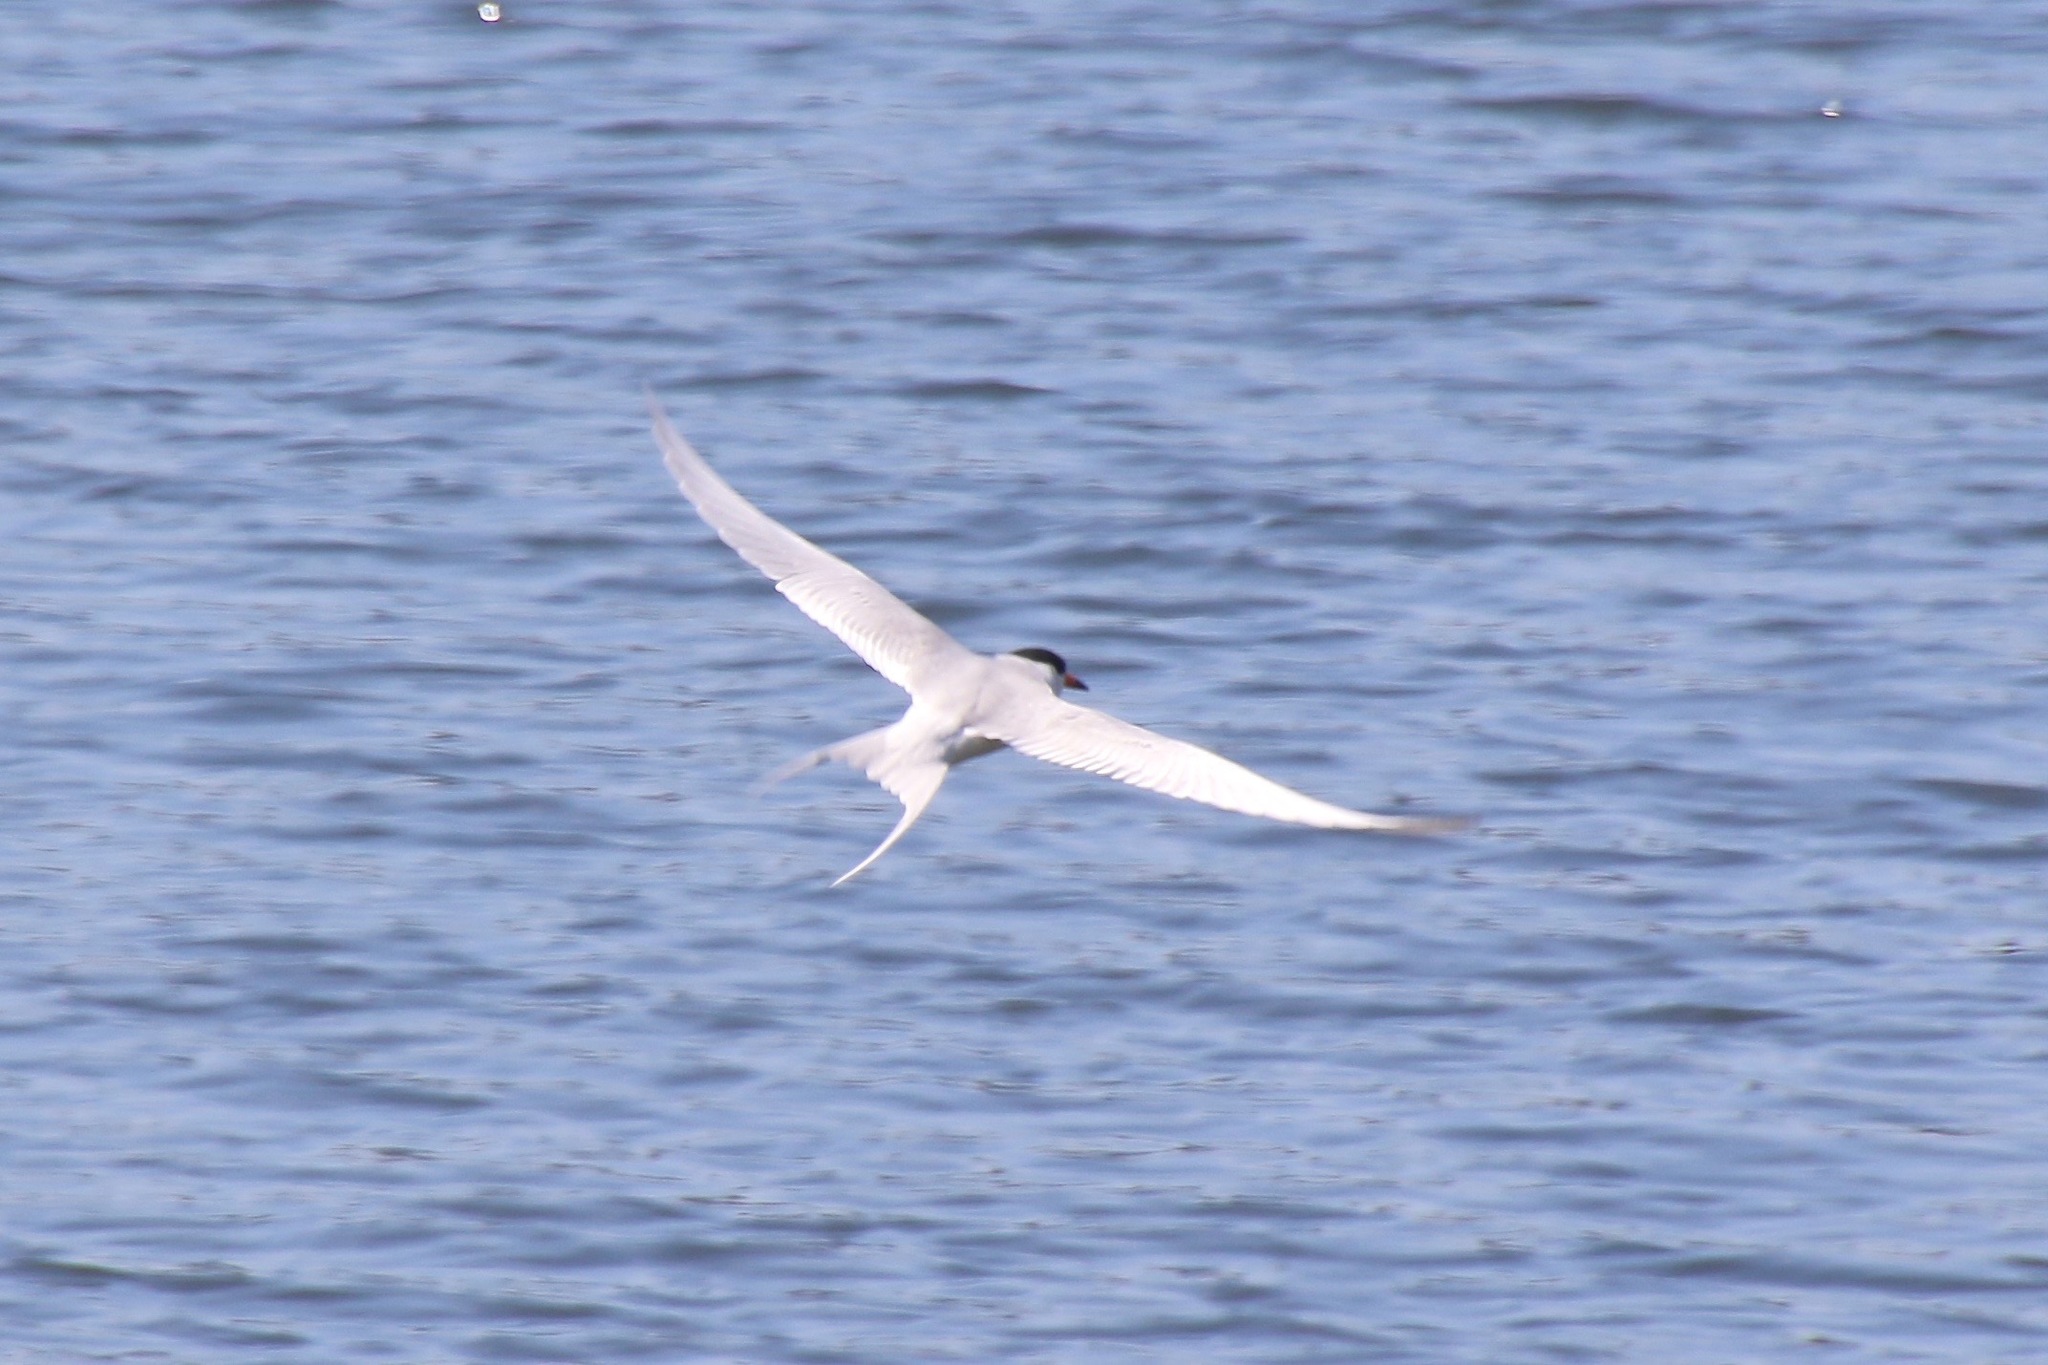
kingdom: Animalia
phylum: Chordata
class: Aves
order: Charadriiformes
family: Laridae
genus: Sterna
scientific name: Sterna forsteri
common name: Forster's tern
